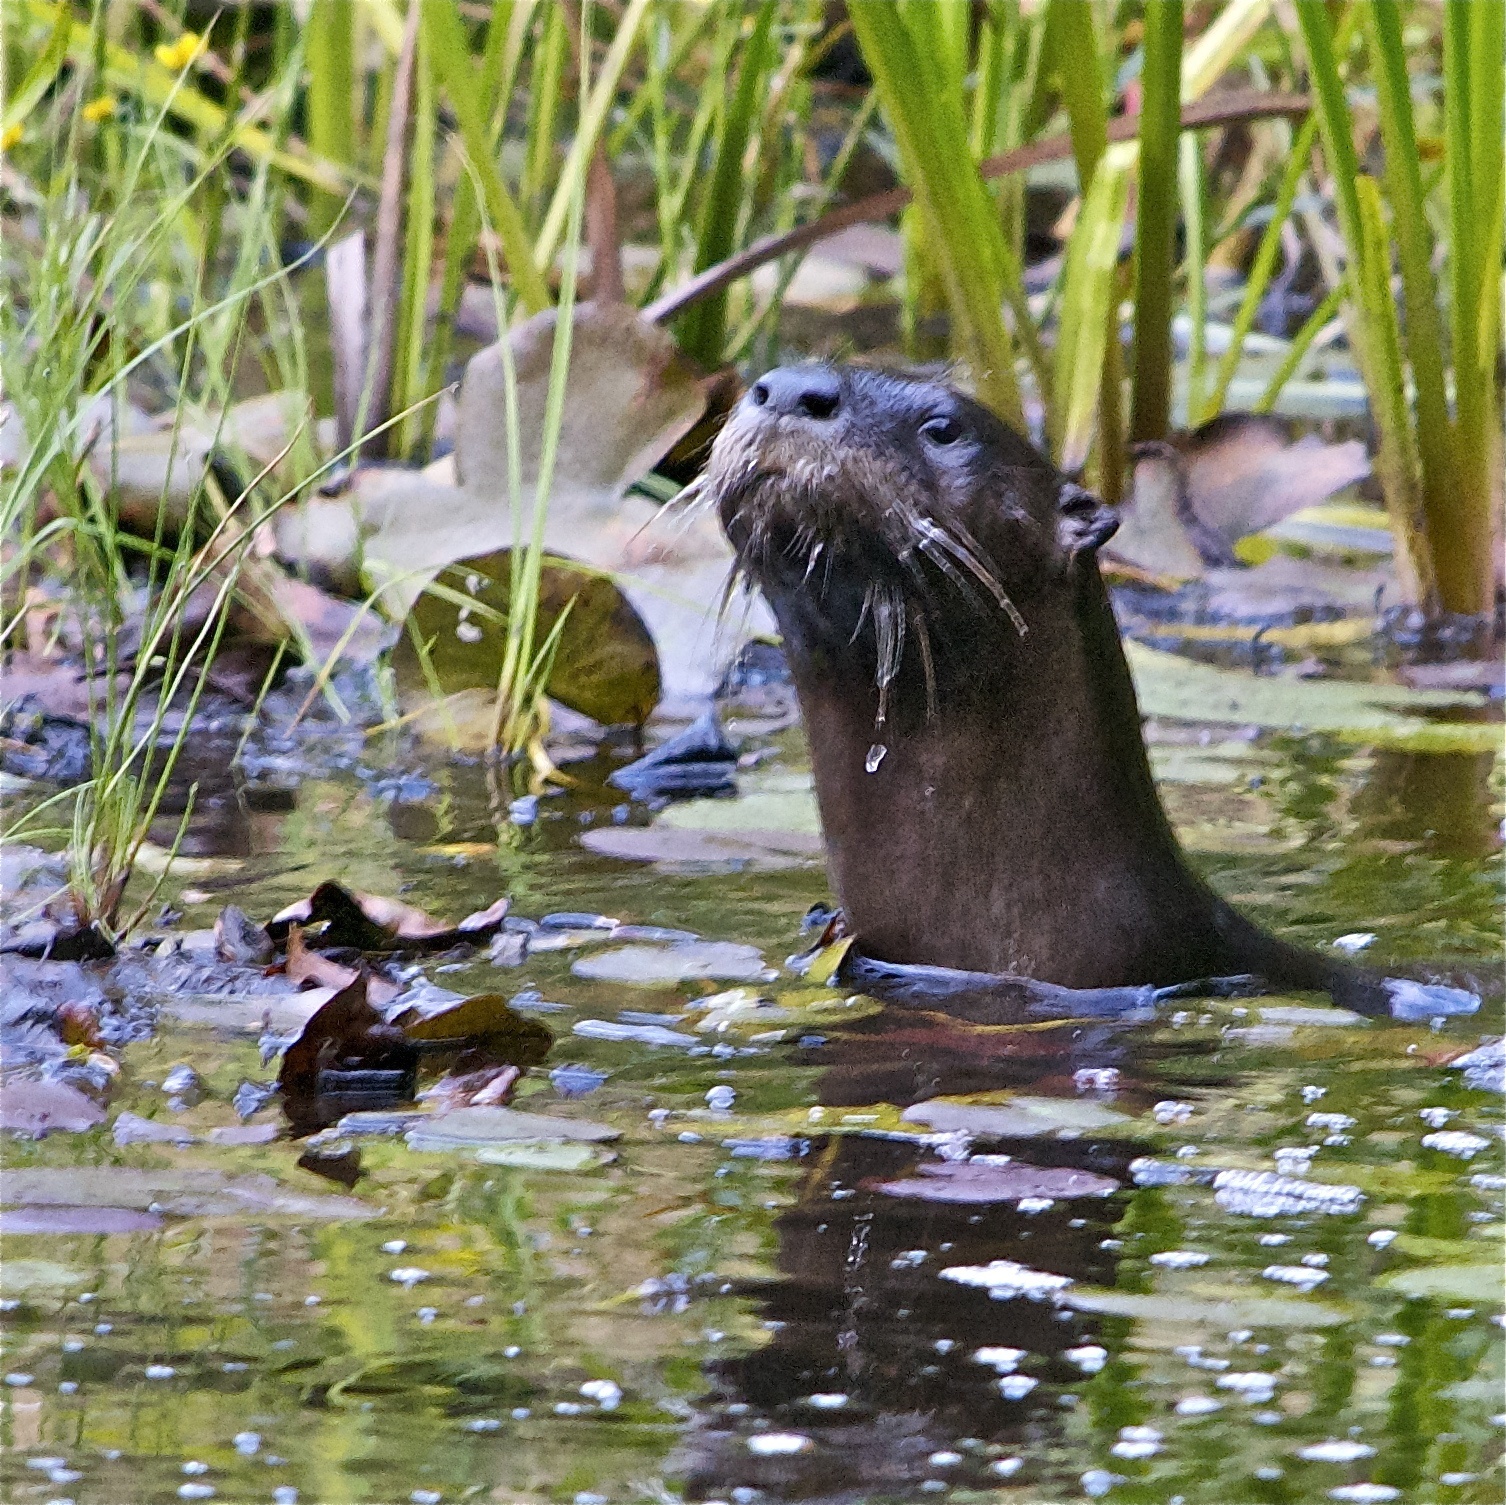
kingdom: Animalia
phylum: Chordata
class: Mammalia
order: Carnivora
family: Mustelidae
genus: Lontra
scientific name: Lontra canadensis
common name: North american river otter
